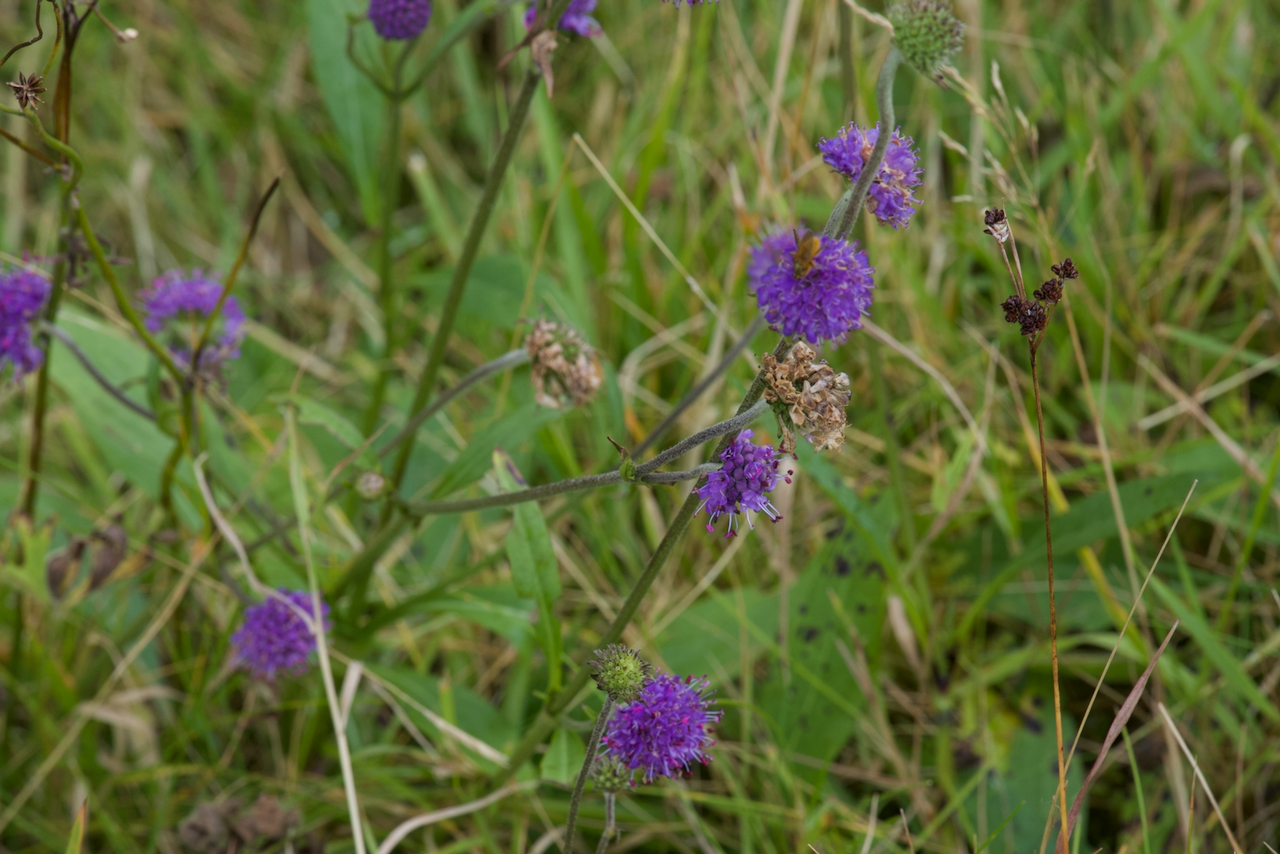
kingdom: Plantae
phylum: Tracheophyta
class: Magnoliopsida
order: Dipsacales
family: Caprifoliaceae
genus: Succisa
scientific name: Succisa pratensis
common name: Devil's-bit
